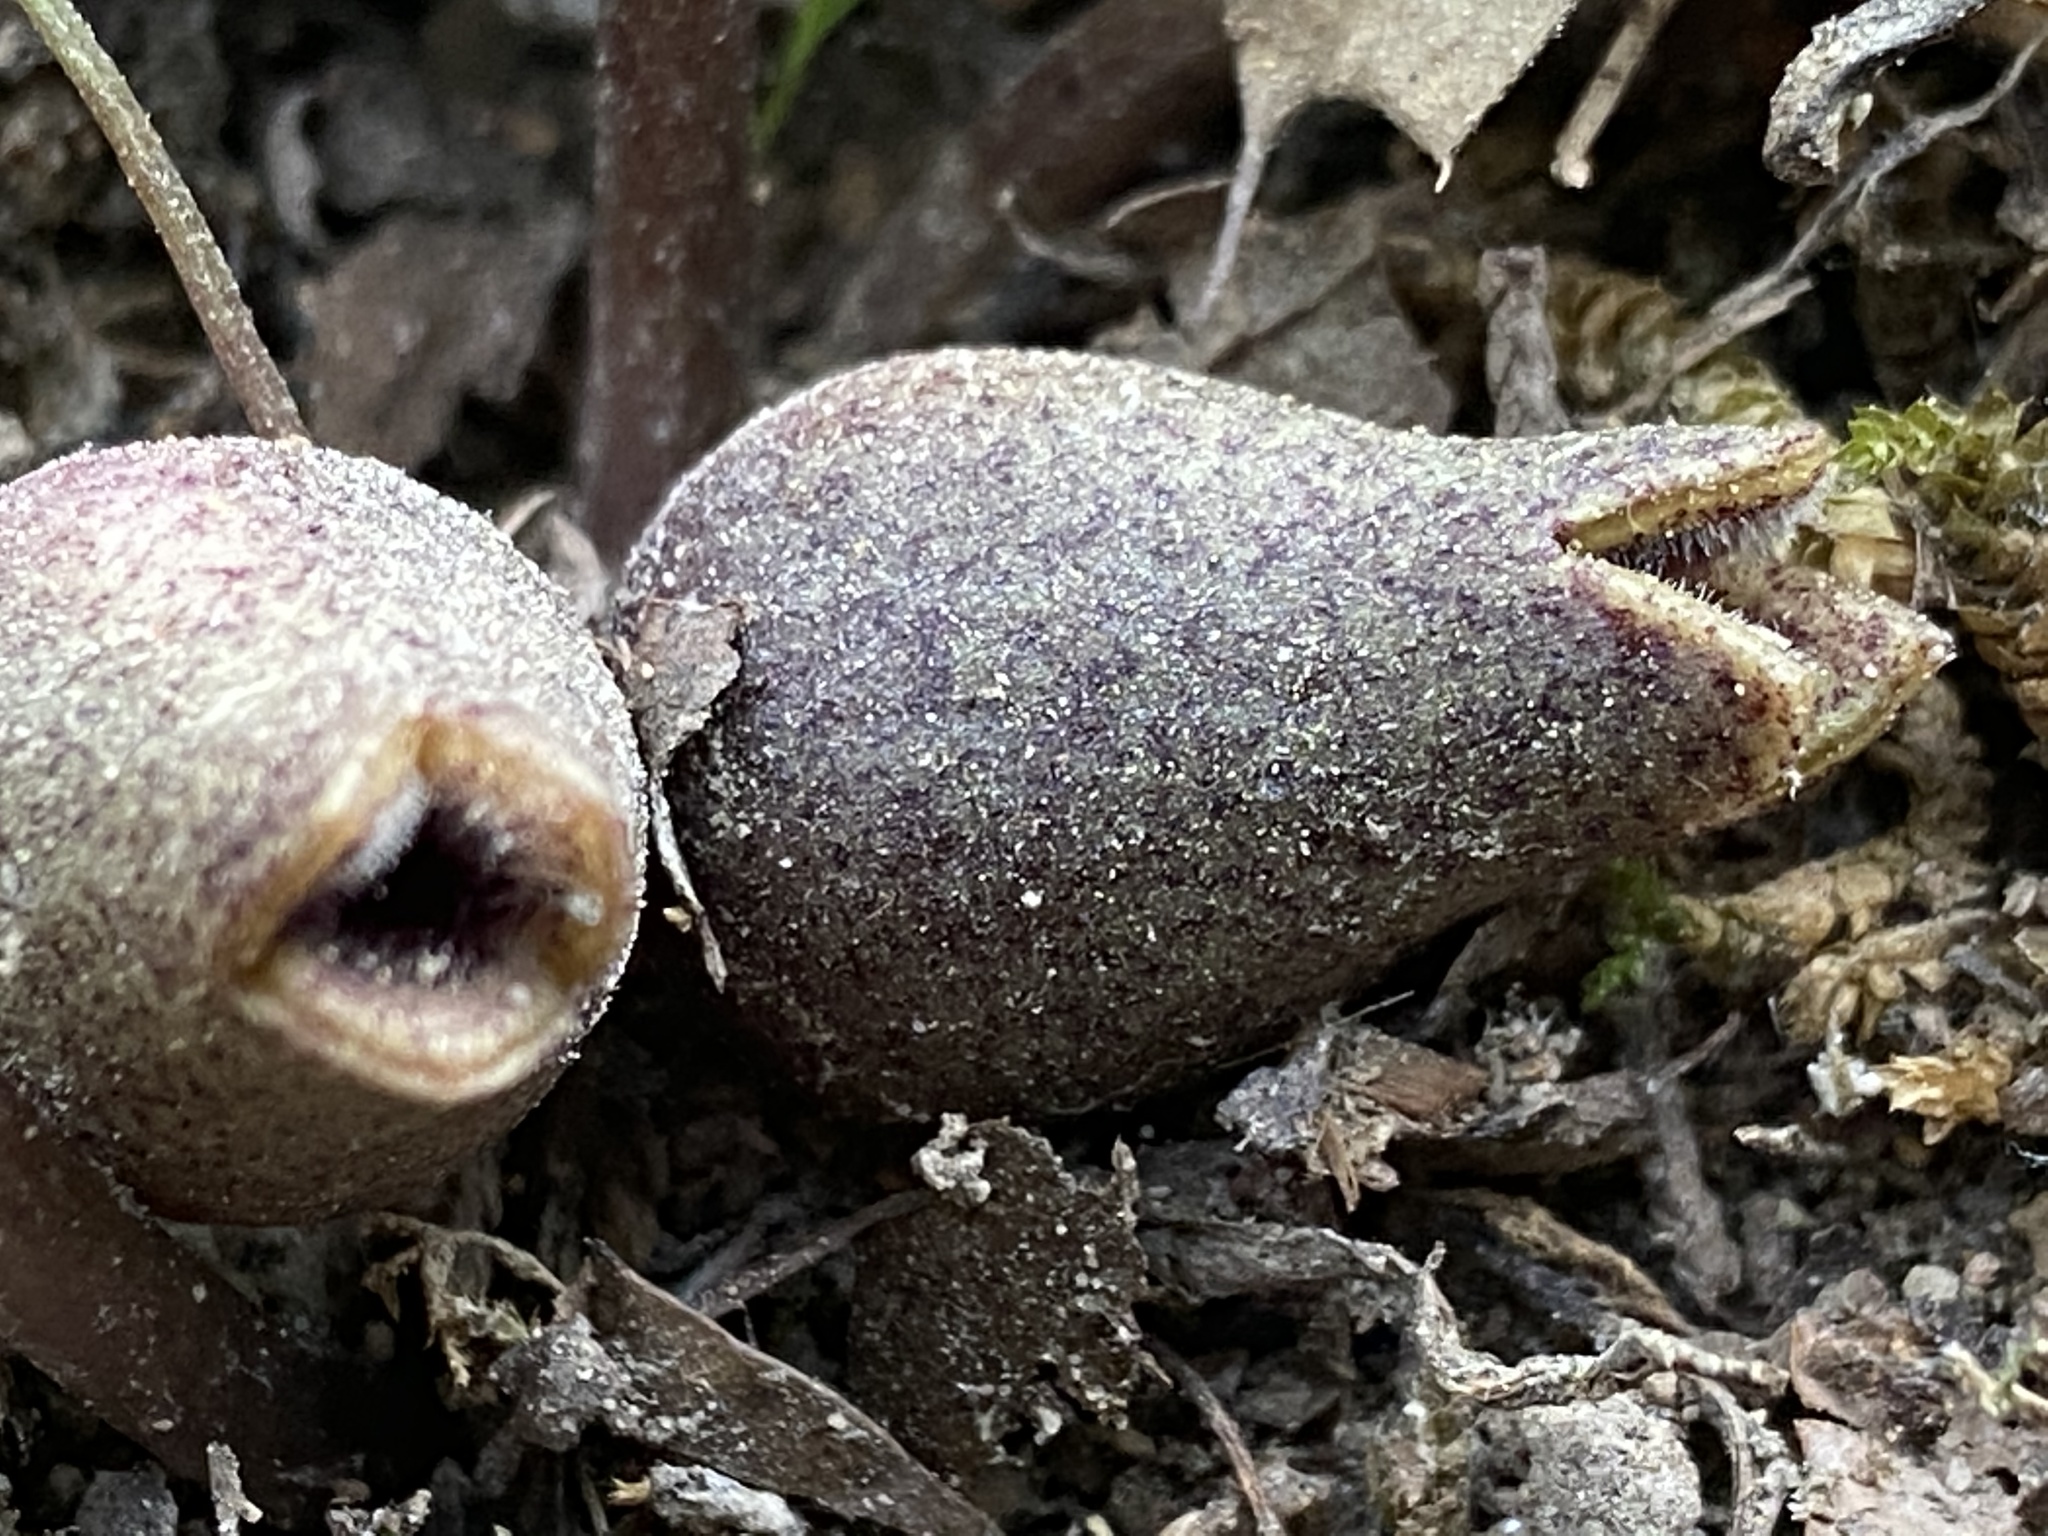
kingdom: Plantae
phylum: Tracheophyta
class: Magnoliopsida
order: Piperales
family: Aristolochiaceae
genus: Hexastylis
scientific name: Hexastylis arifolia
